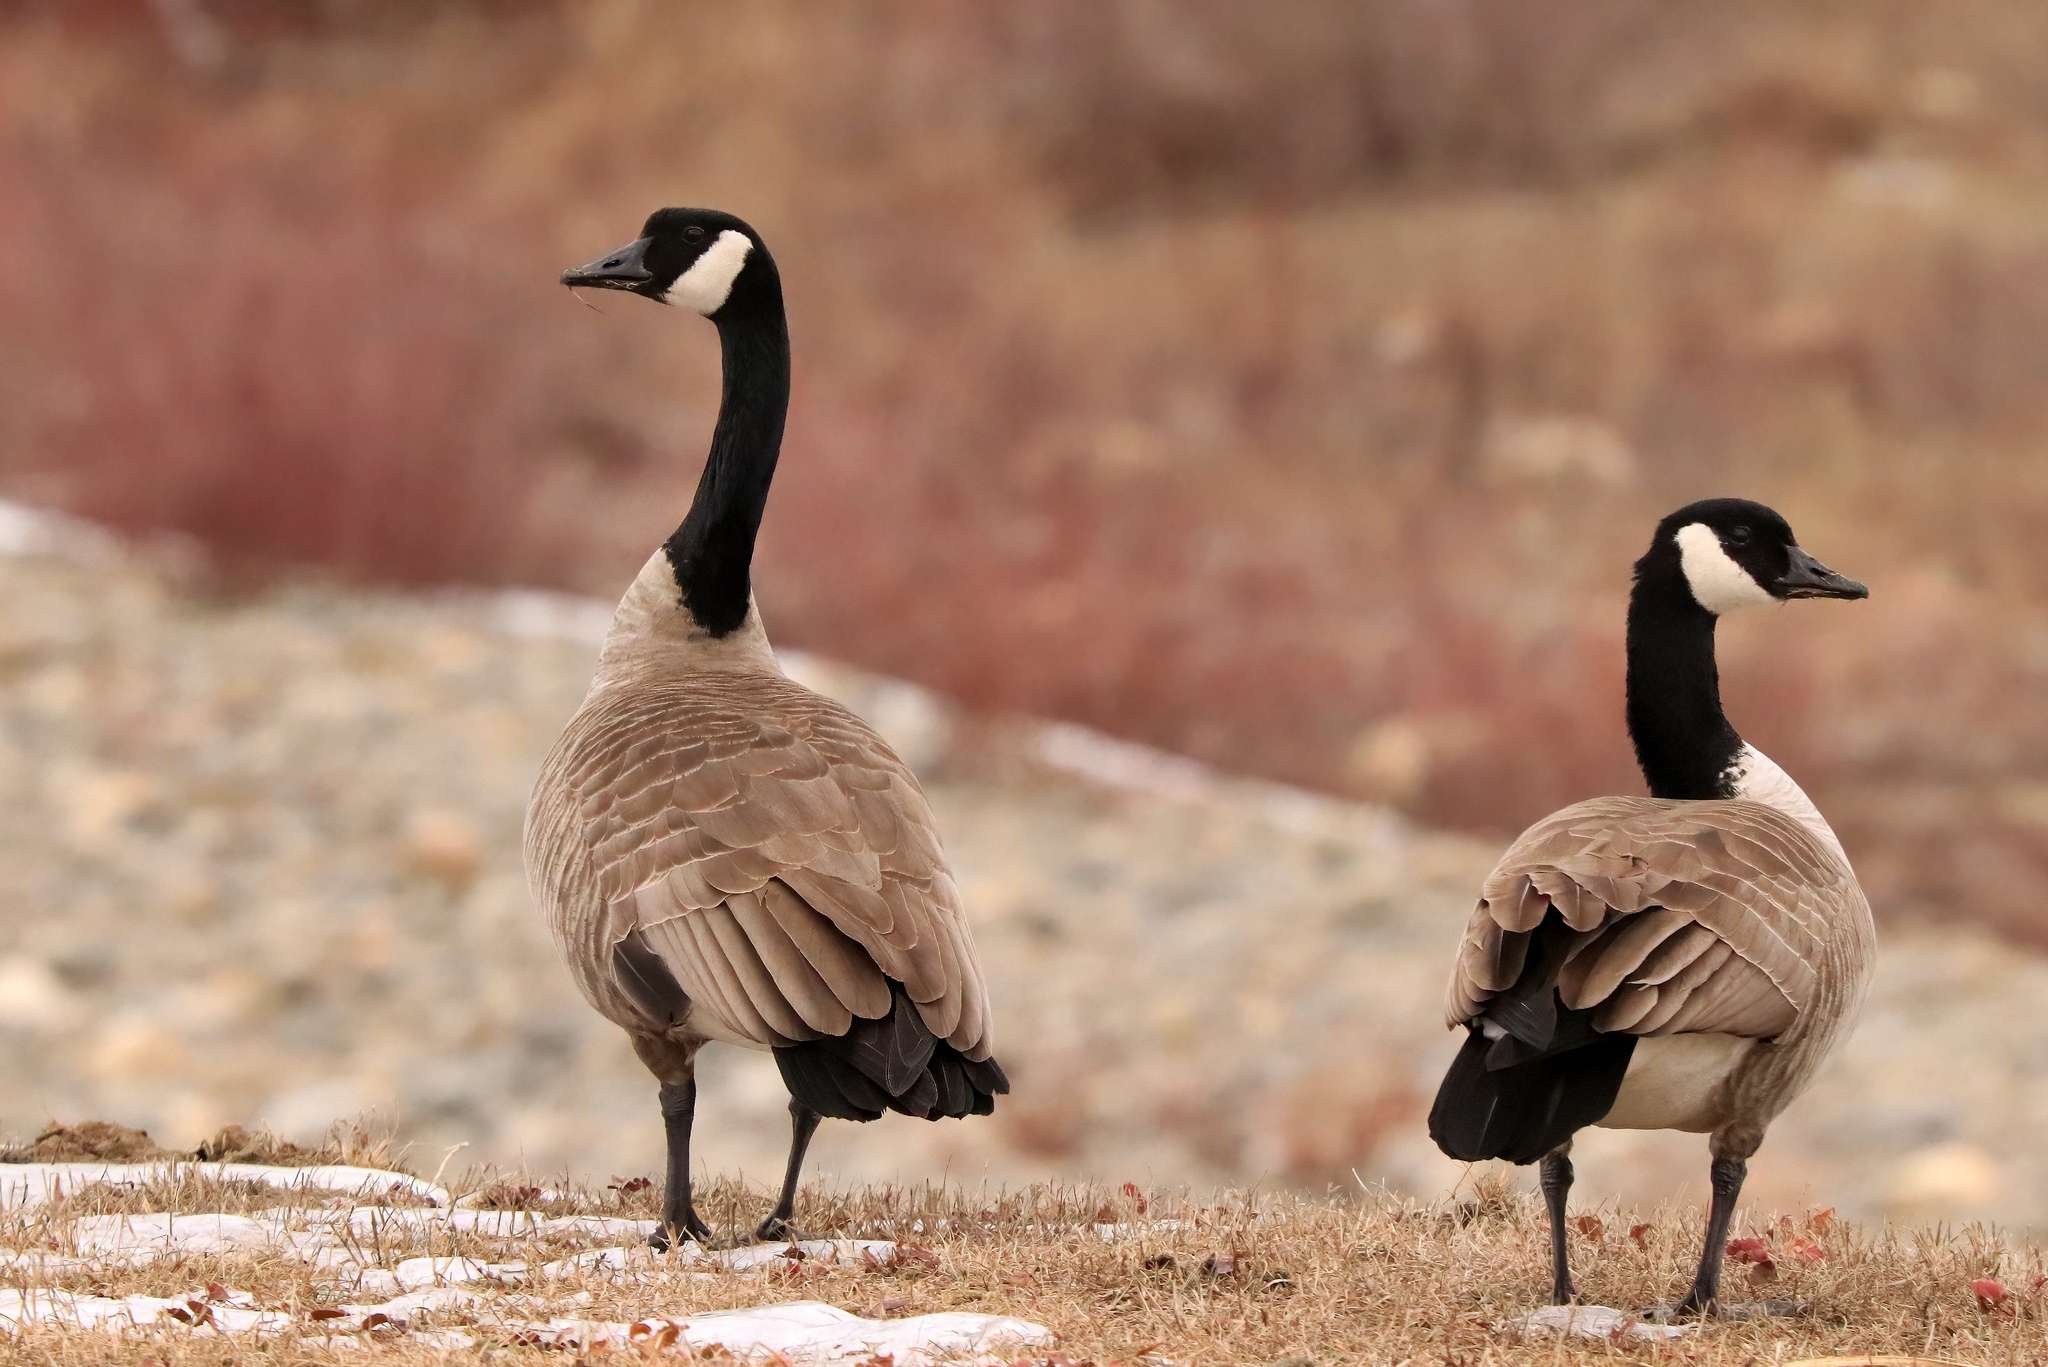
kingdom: Animalia
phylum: Chordata
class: Aves
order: Anseriformes
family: Anatidae
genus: Branta
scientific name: Branta canadensis
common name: Canada goose
